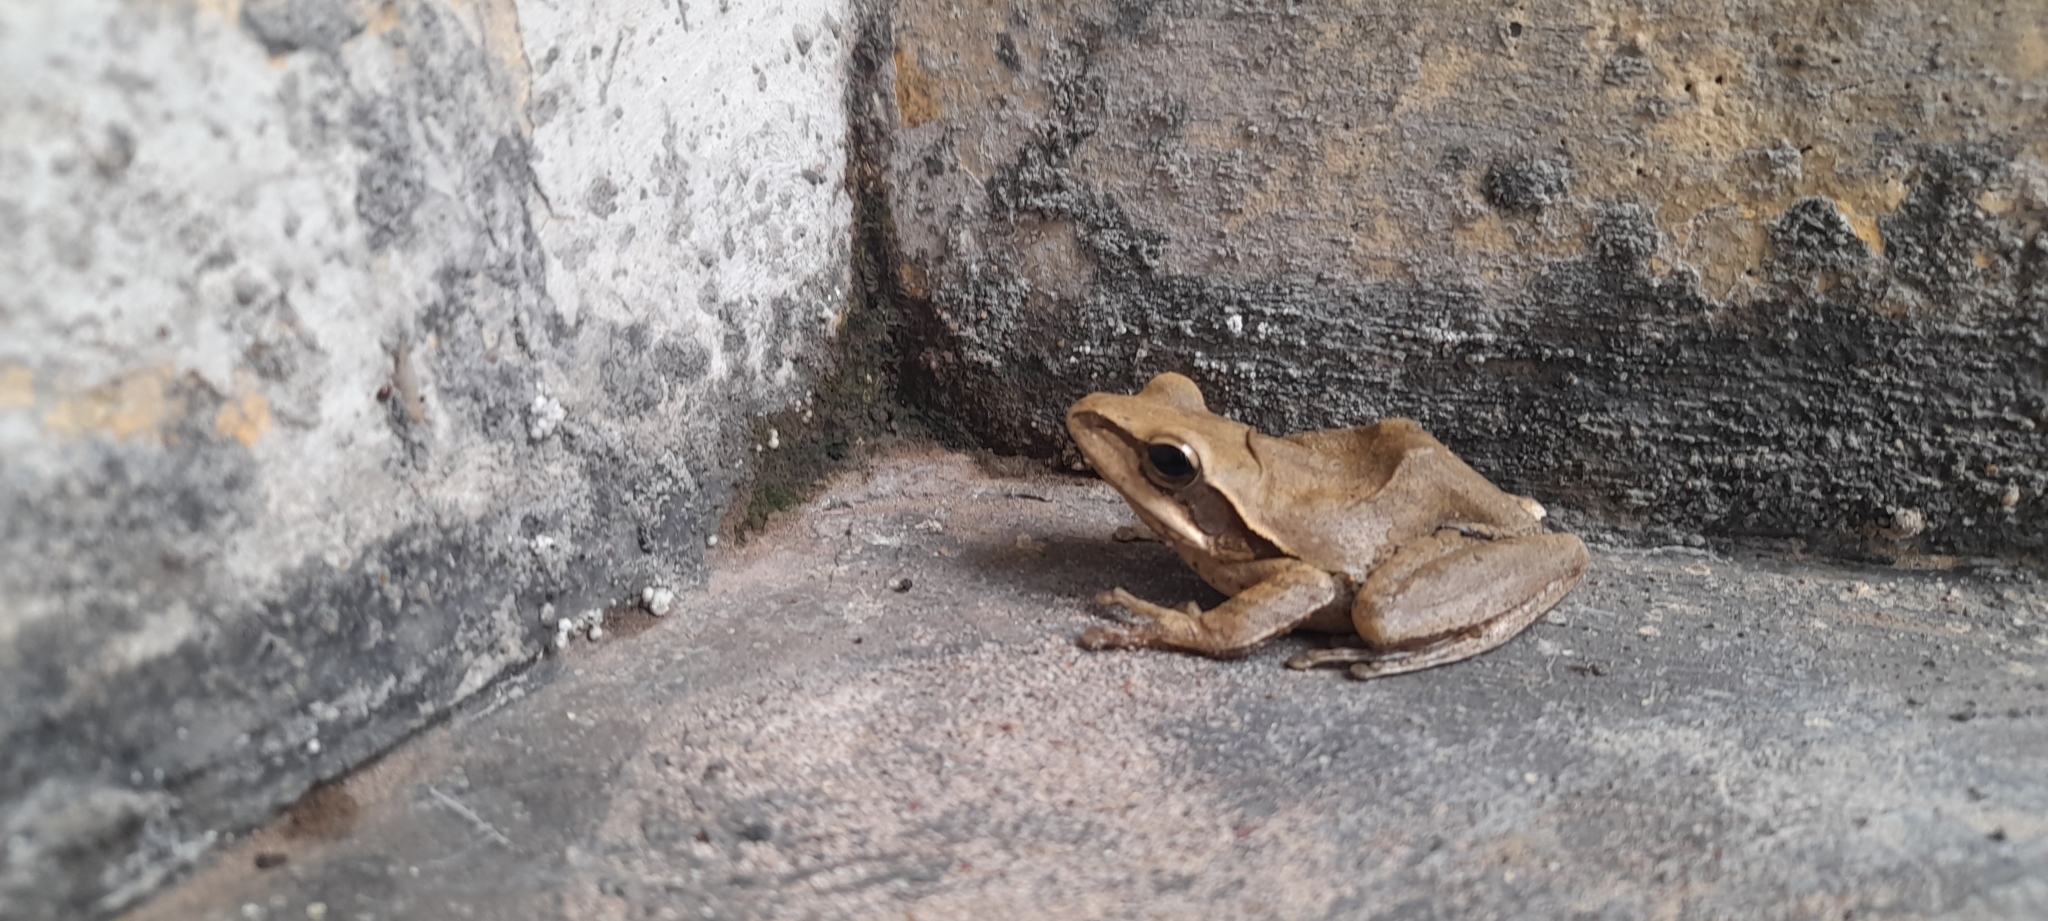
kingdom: Animalia
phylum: Chordata
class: Amphibia
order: Anura
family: Rhacophoridae
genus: Polypedates
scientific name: Polypedates maculatus
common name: Himalayan tree frog
